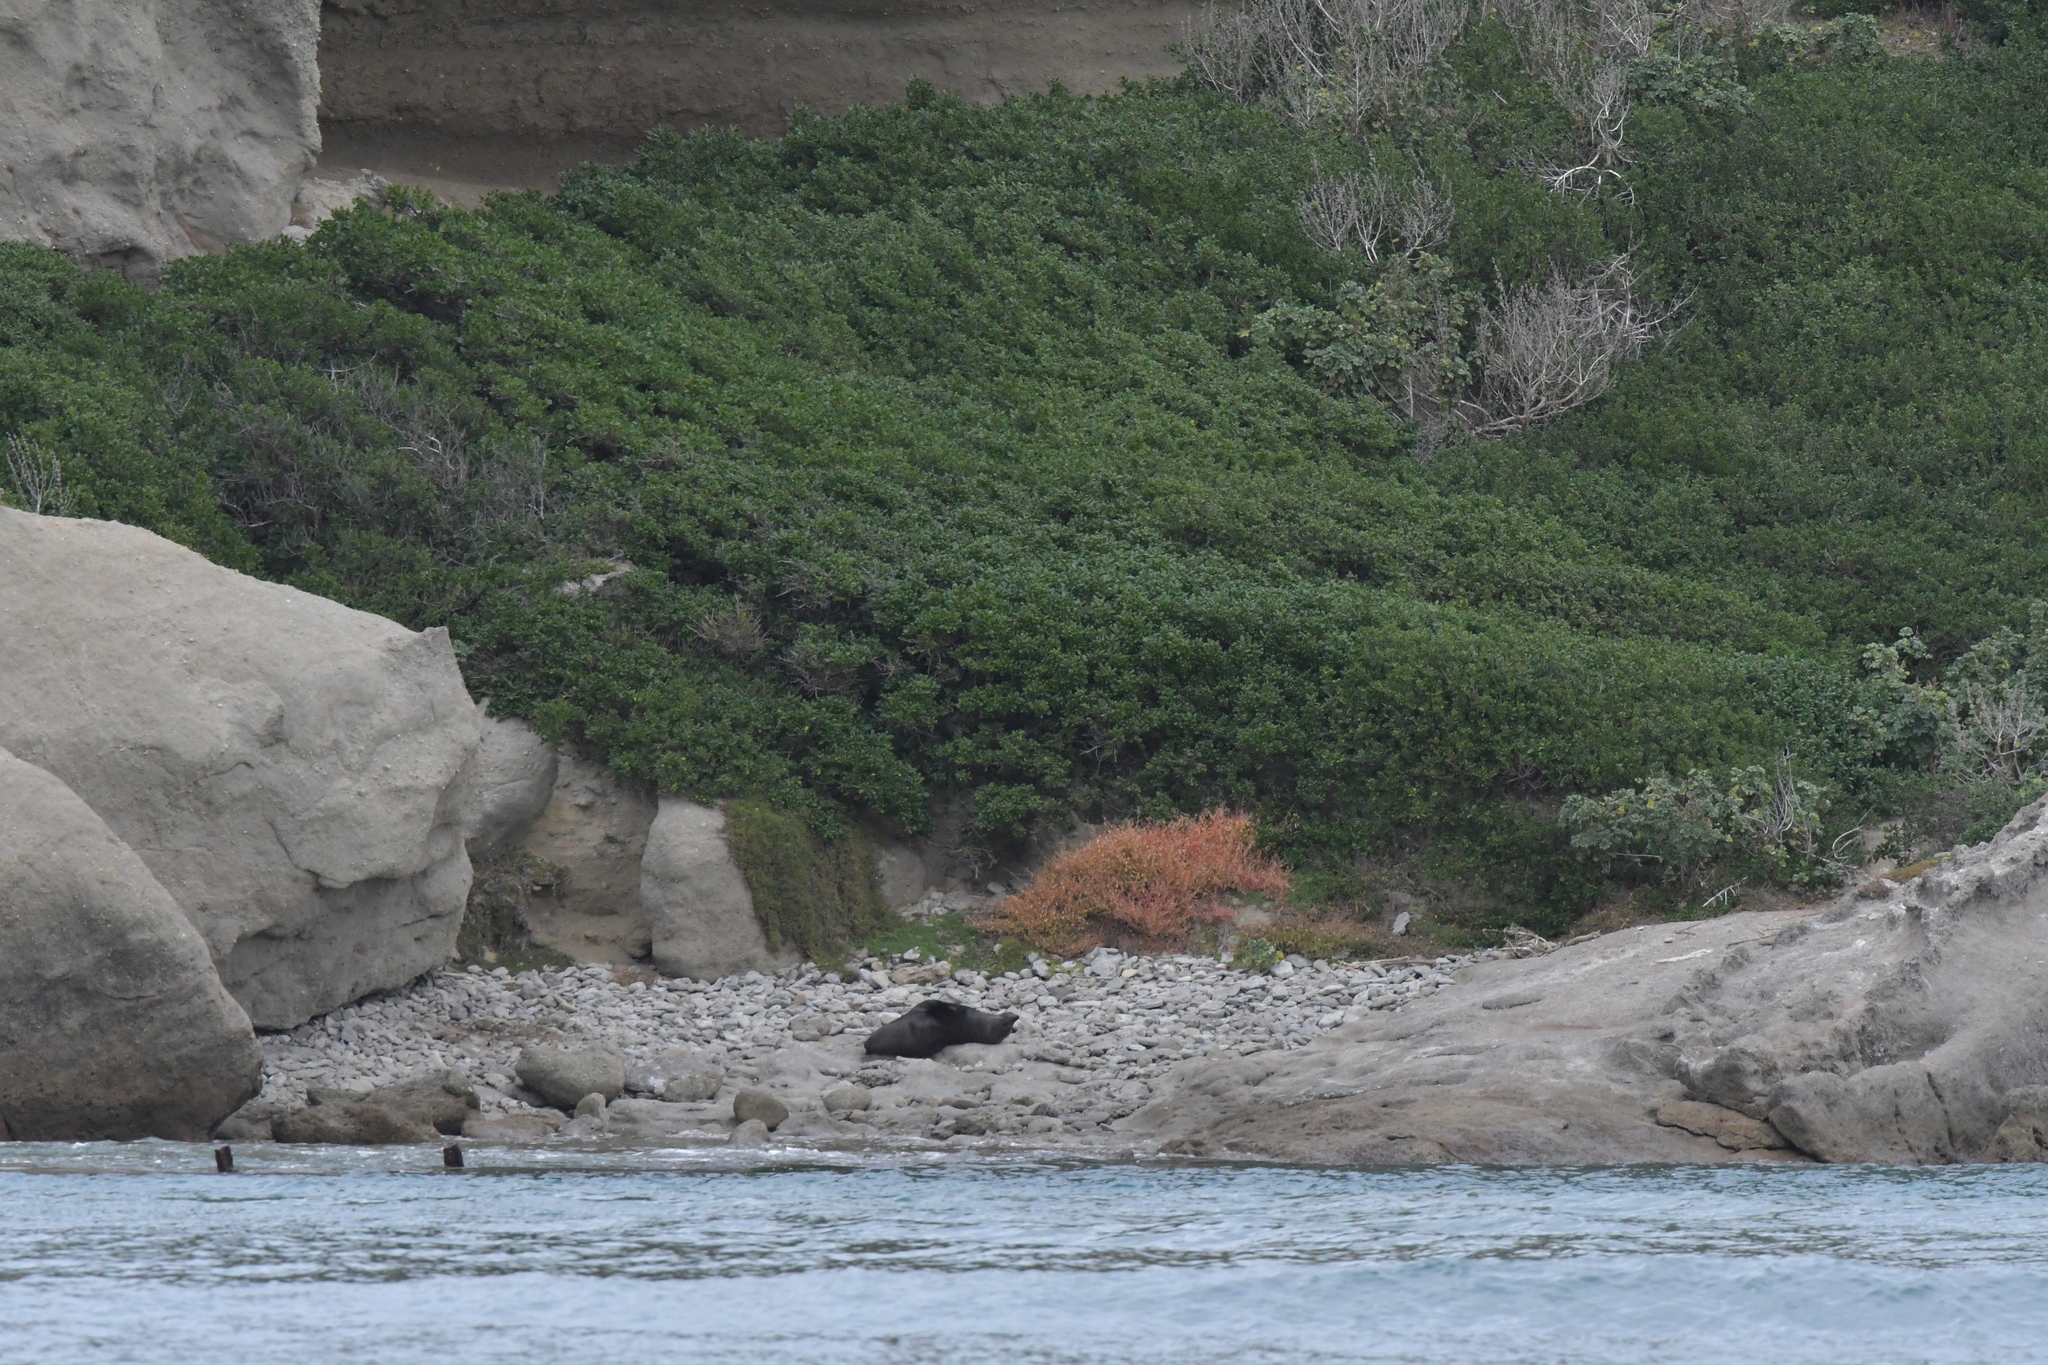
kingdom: Animalia
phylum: Chordata
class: Mammalia
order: Carnivora
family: Otariidae
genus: Arctocephalus
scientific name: Arctocephalus forsteri
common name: New zealand fur seal
